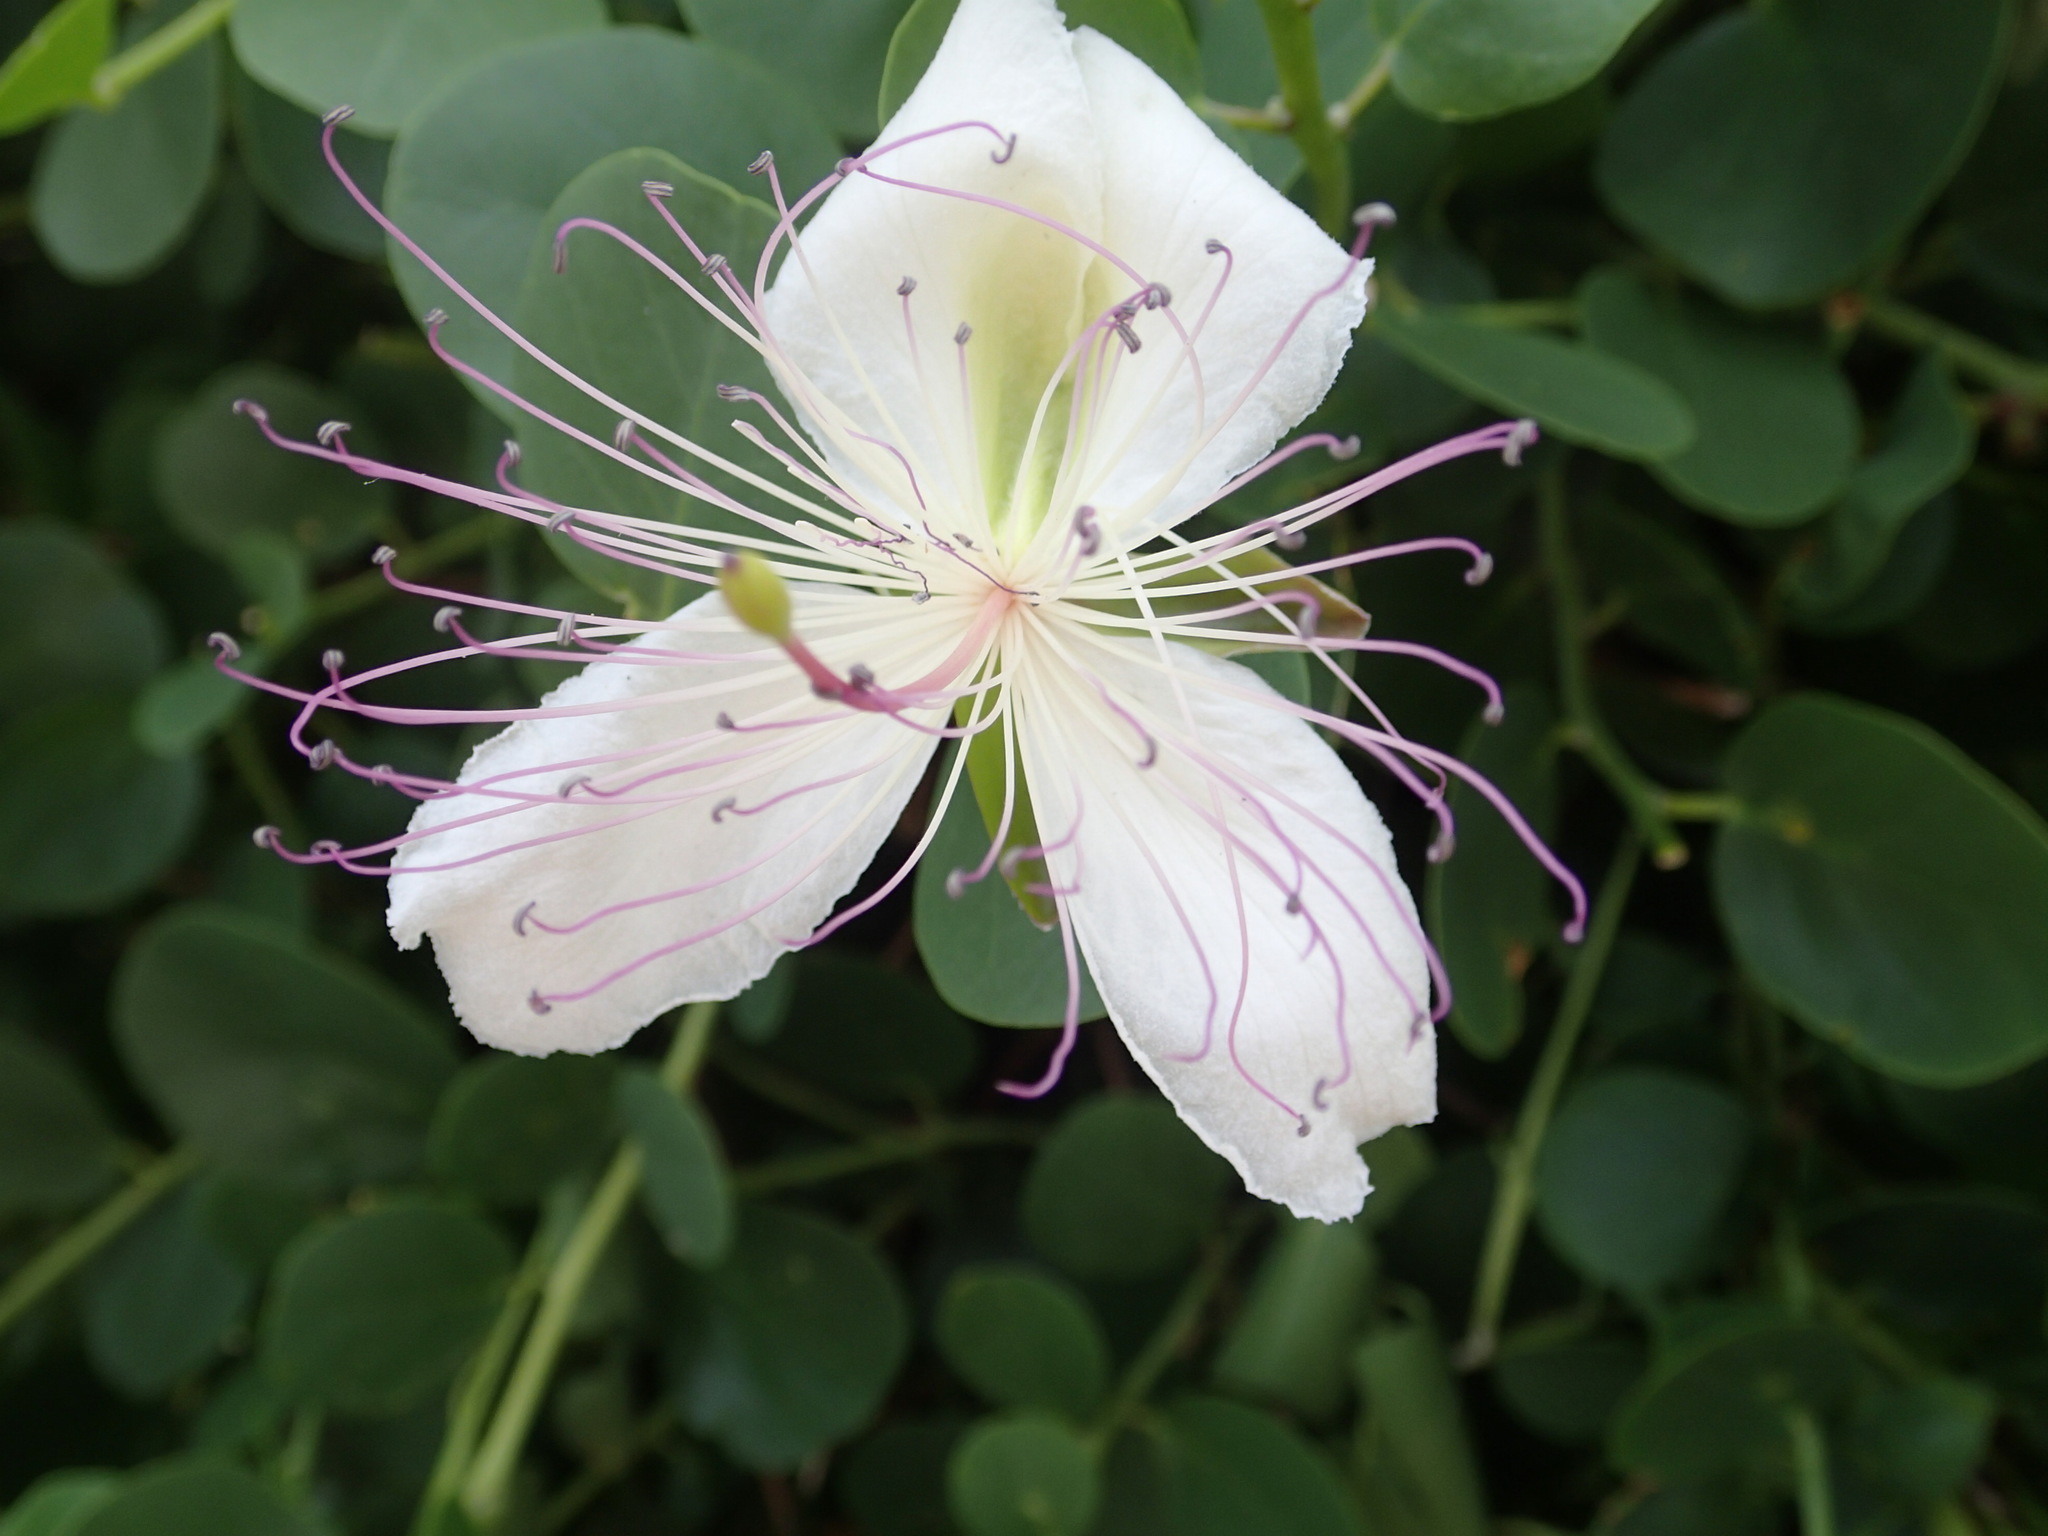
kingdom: Plantae
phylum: Tracheophyta
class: Magnoliopsida
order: Brassicales
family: Capparaceae
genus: Capparis
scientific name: Capparis spinosa
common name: Caper
